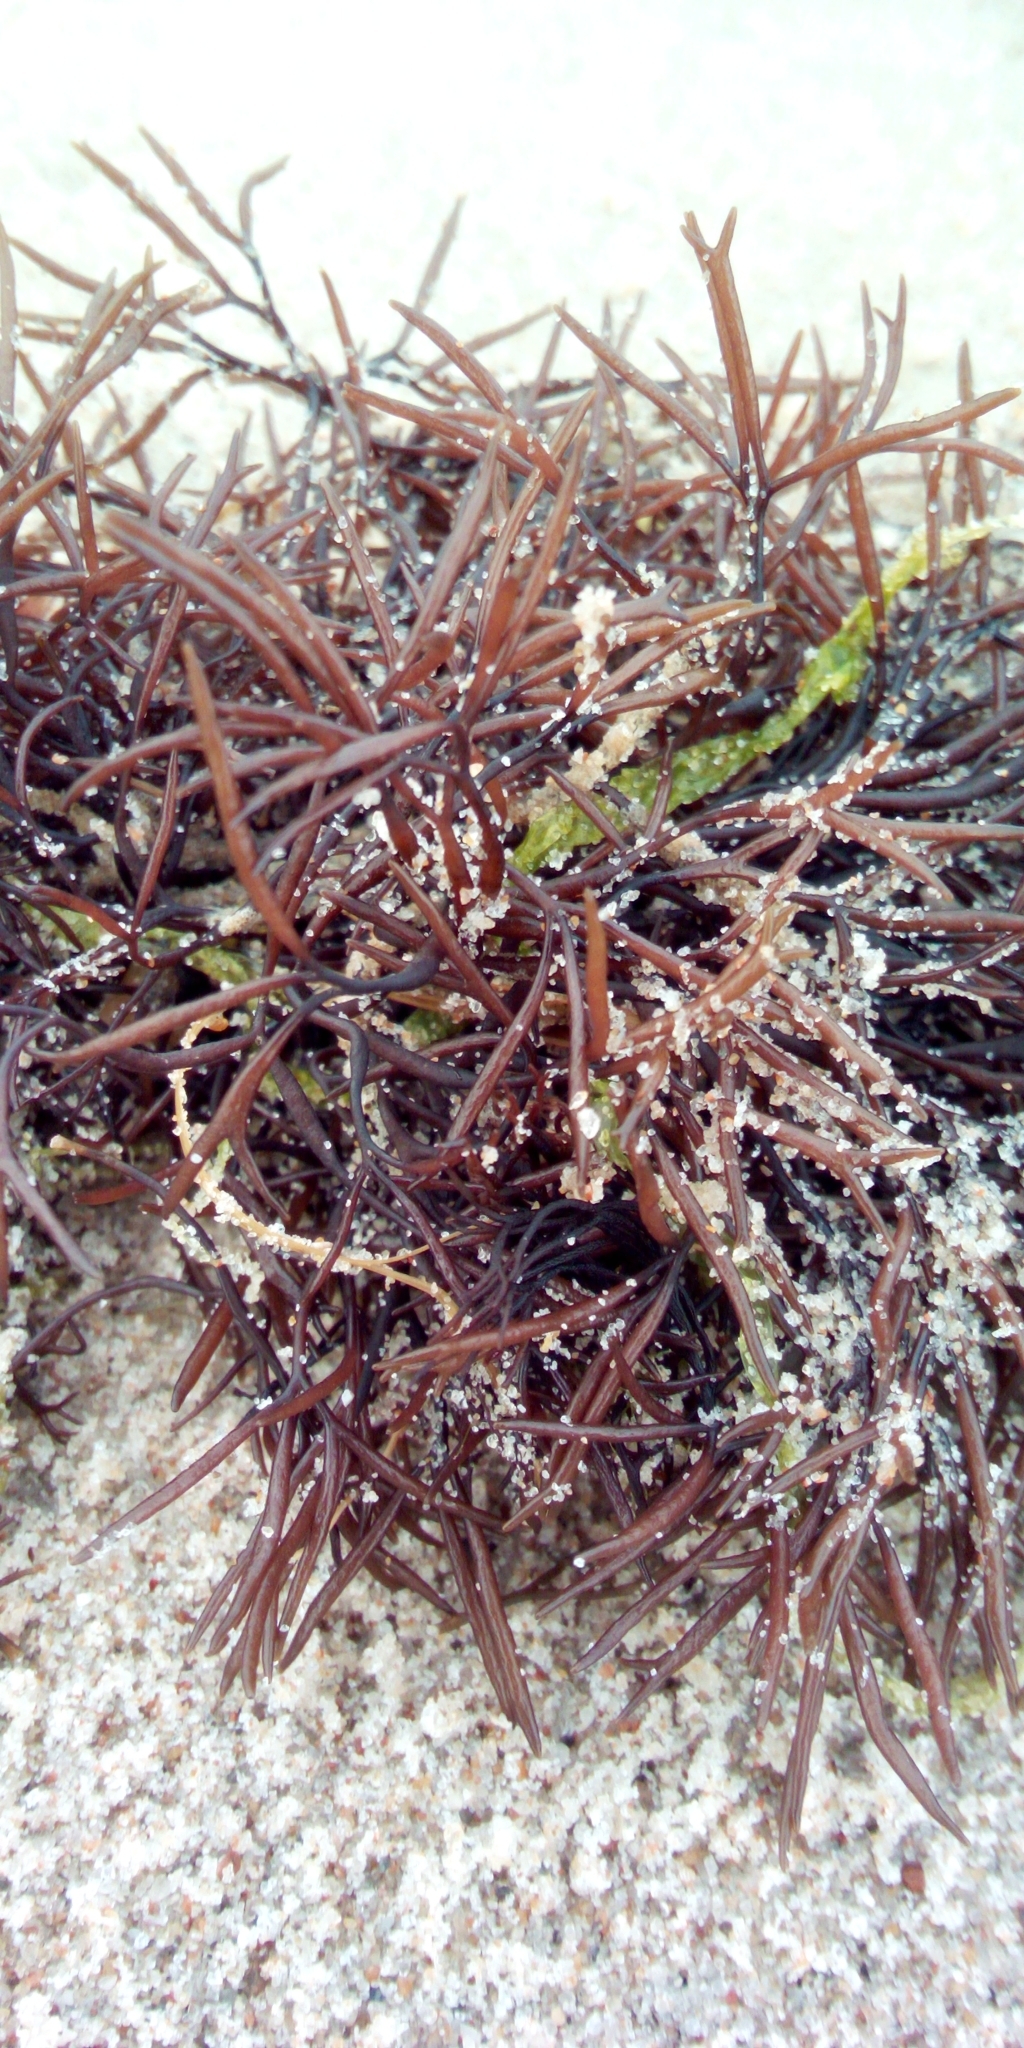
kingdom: Plantae
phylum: Rhodophyta
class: Florideophyceae
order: Gigartinales
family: Furcellariaceae
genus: Furcellaria
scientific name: Furcellaria lumbricalis
